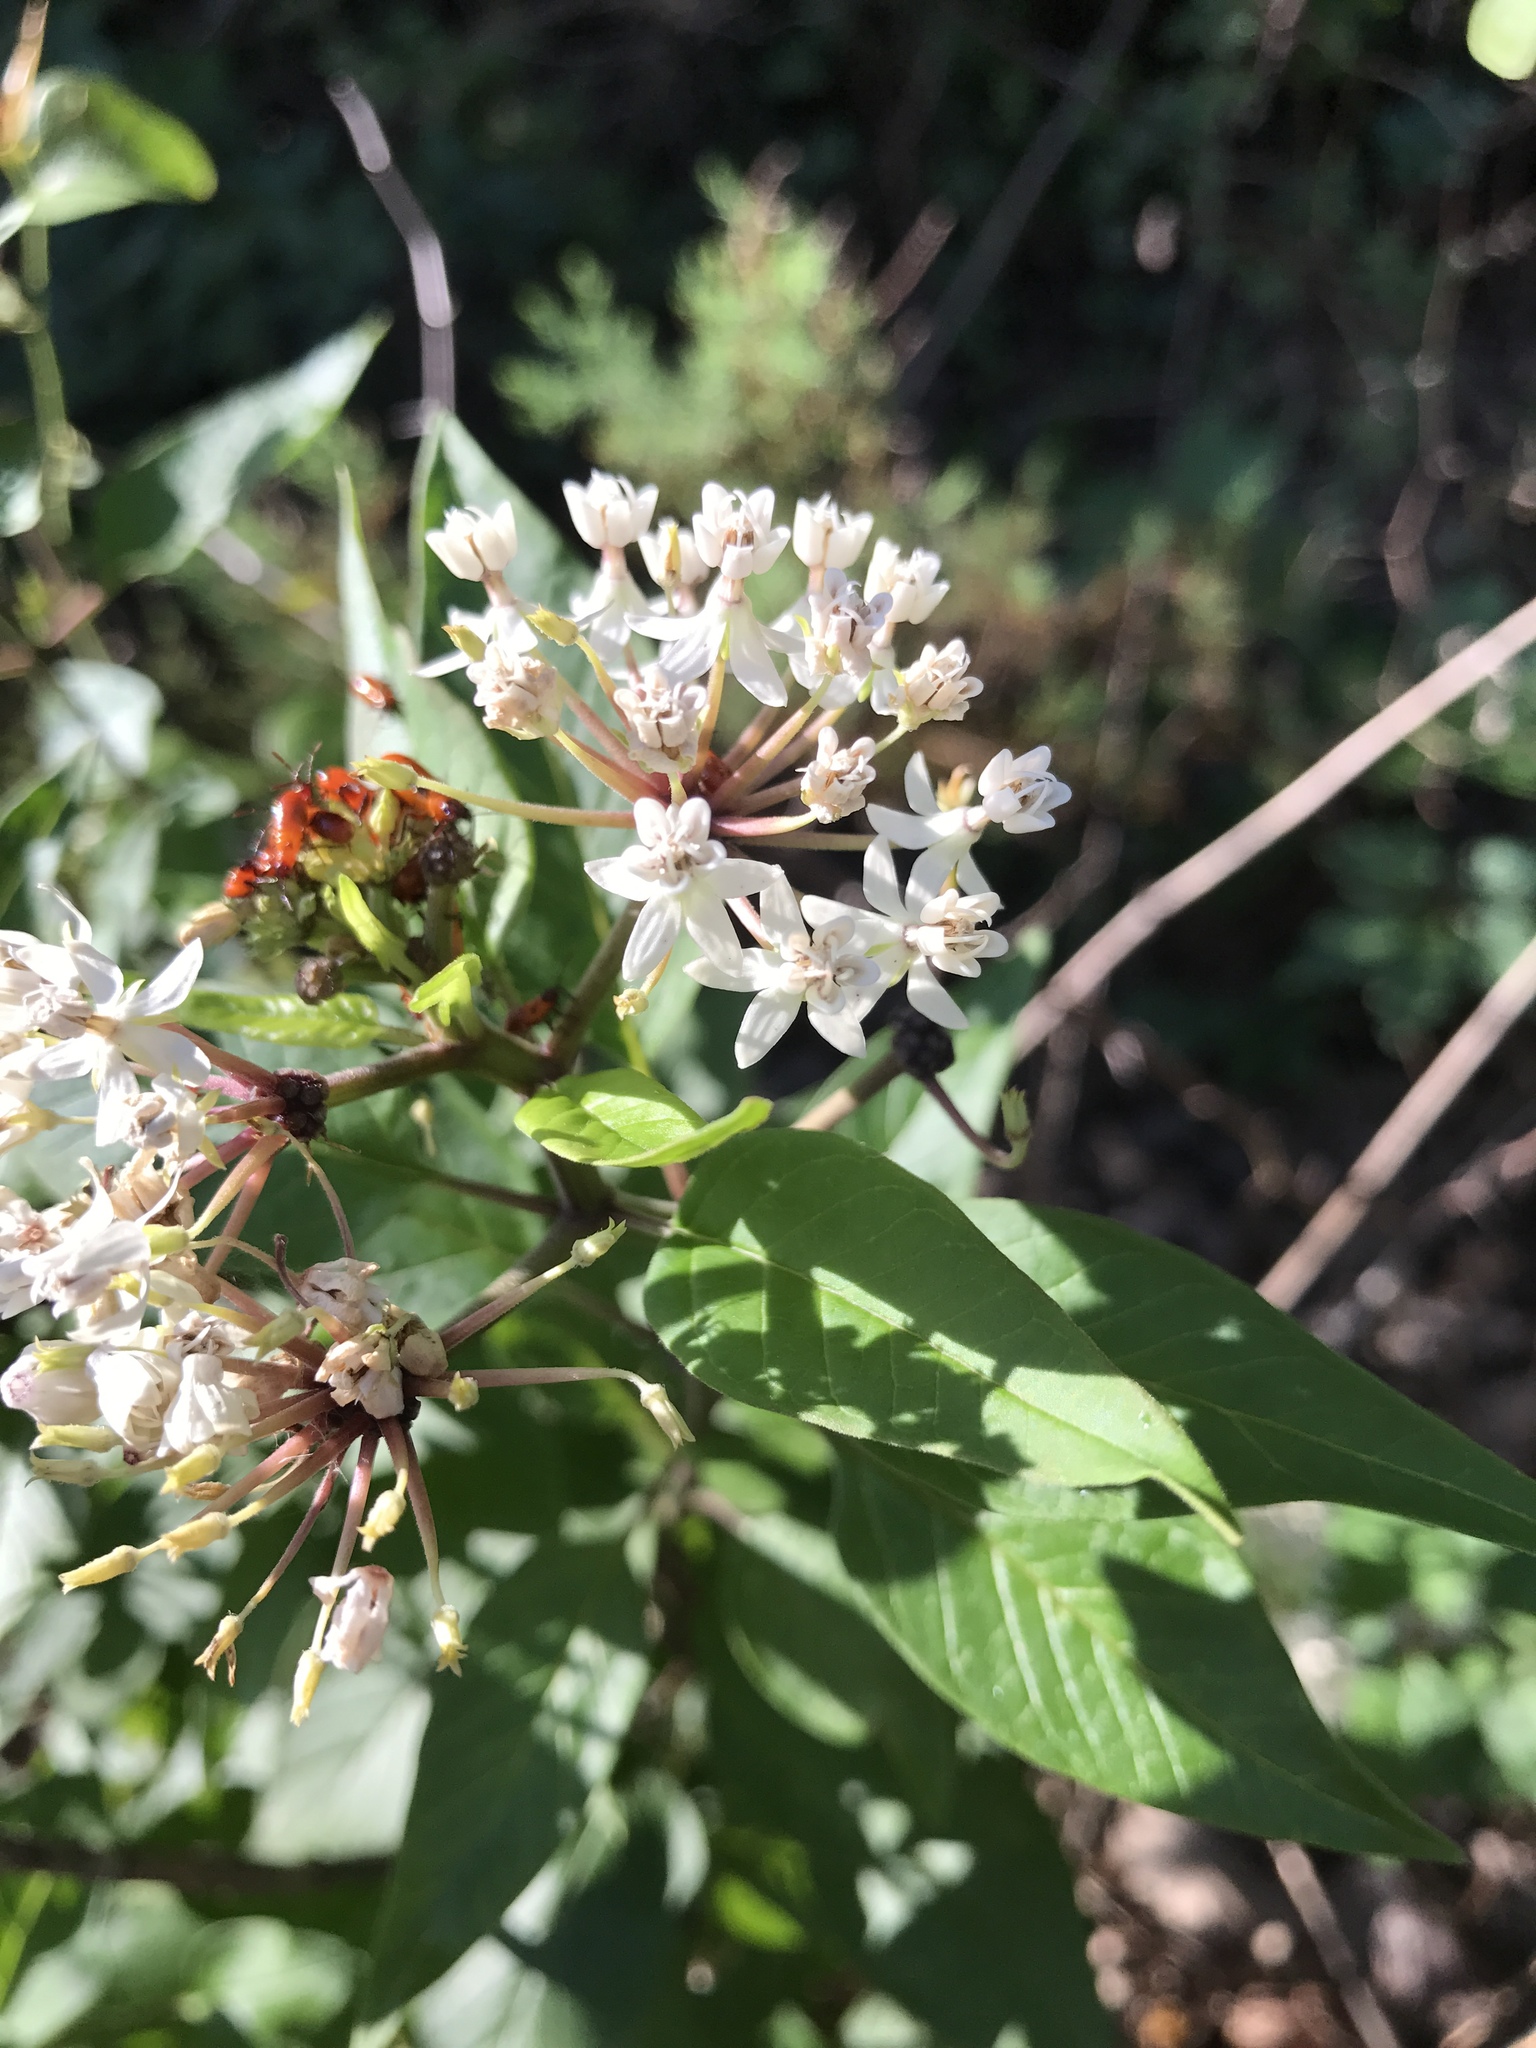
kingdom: Plantae
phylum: Tracheophyta
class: Magnoliopsida
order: Gentianales
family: Apocynaceae
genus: Asclepias
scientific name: Asclepias texana
